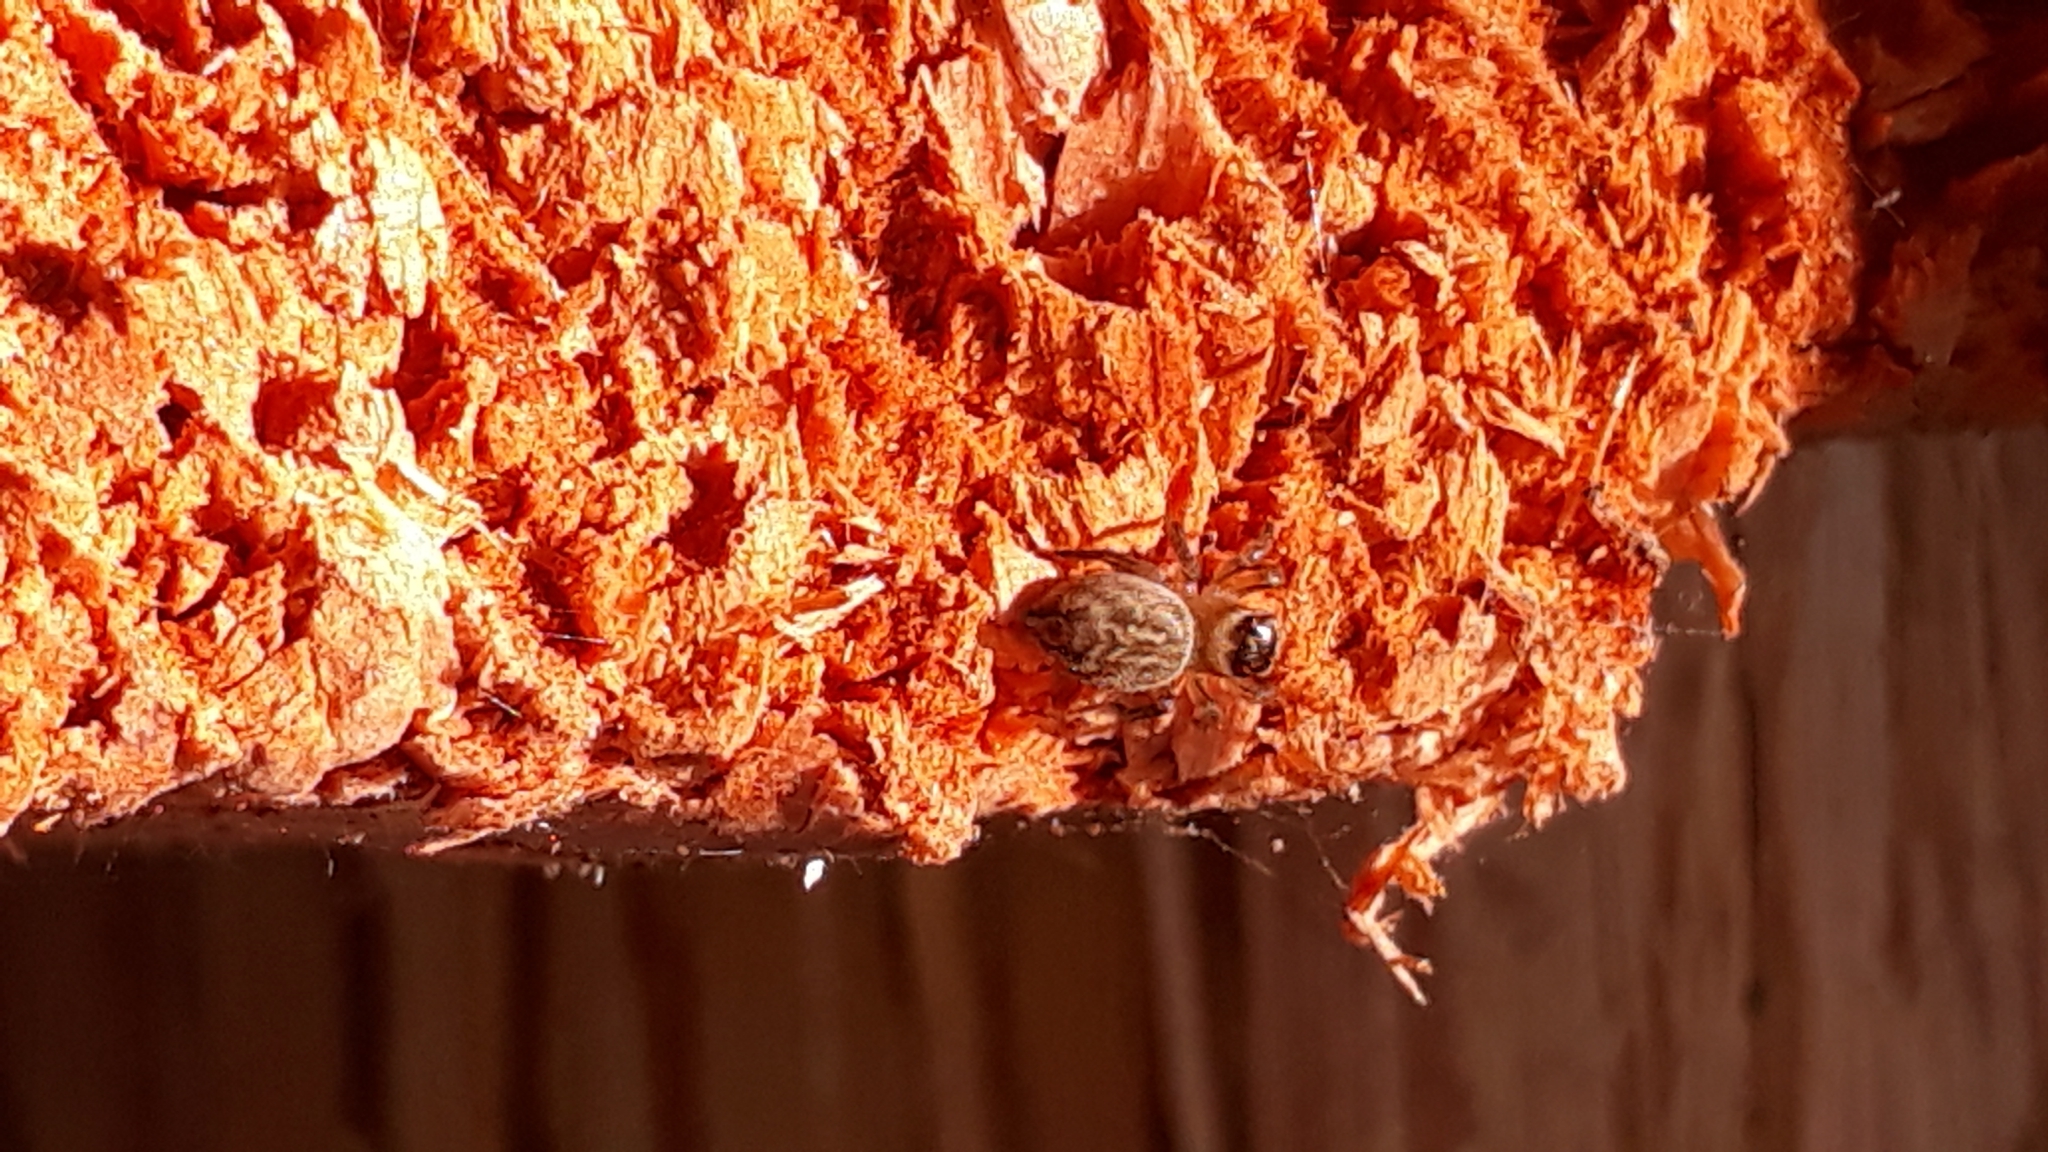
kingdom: Animalia
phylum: Arthropoda
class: Arachnida
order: Araneae
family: Salticidae
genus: Maratus
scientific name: Maratus griseus
